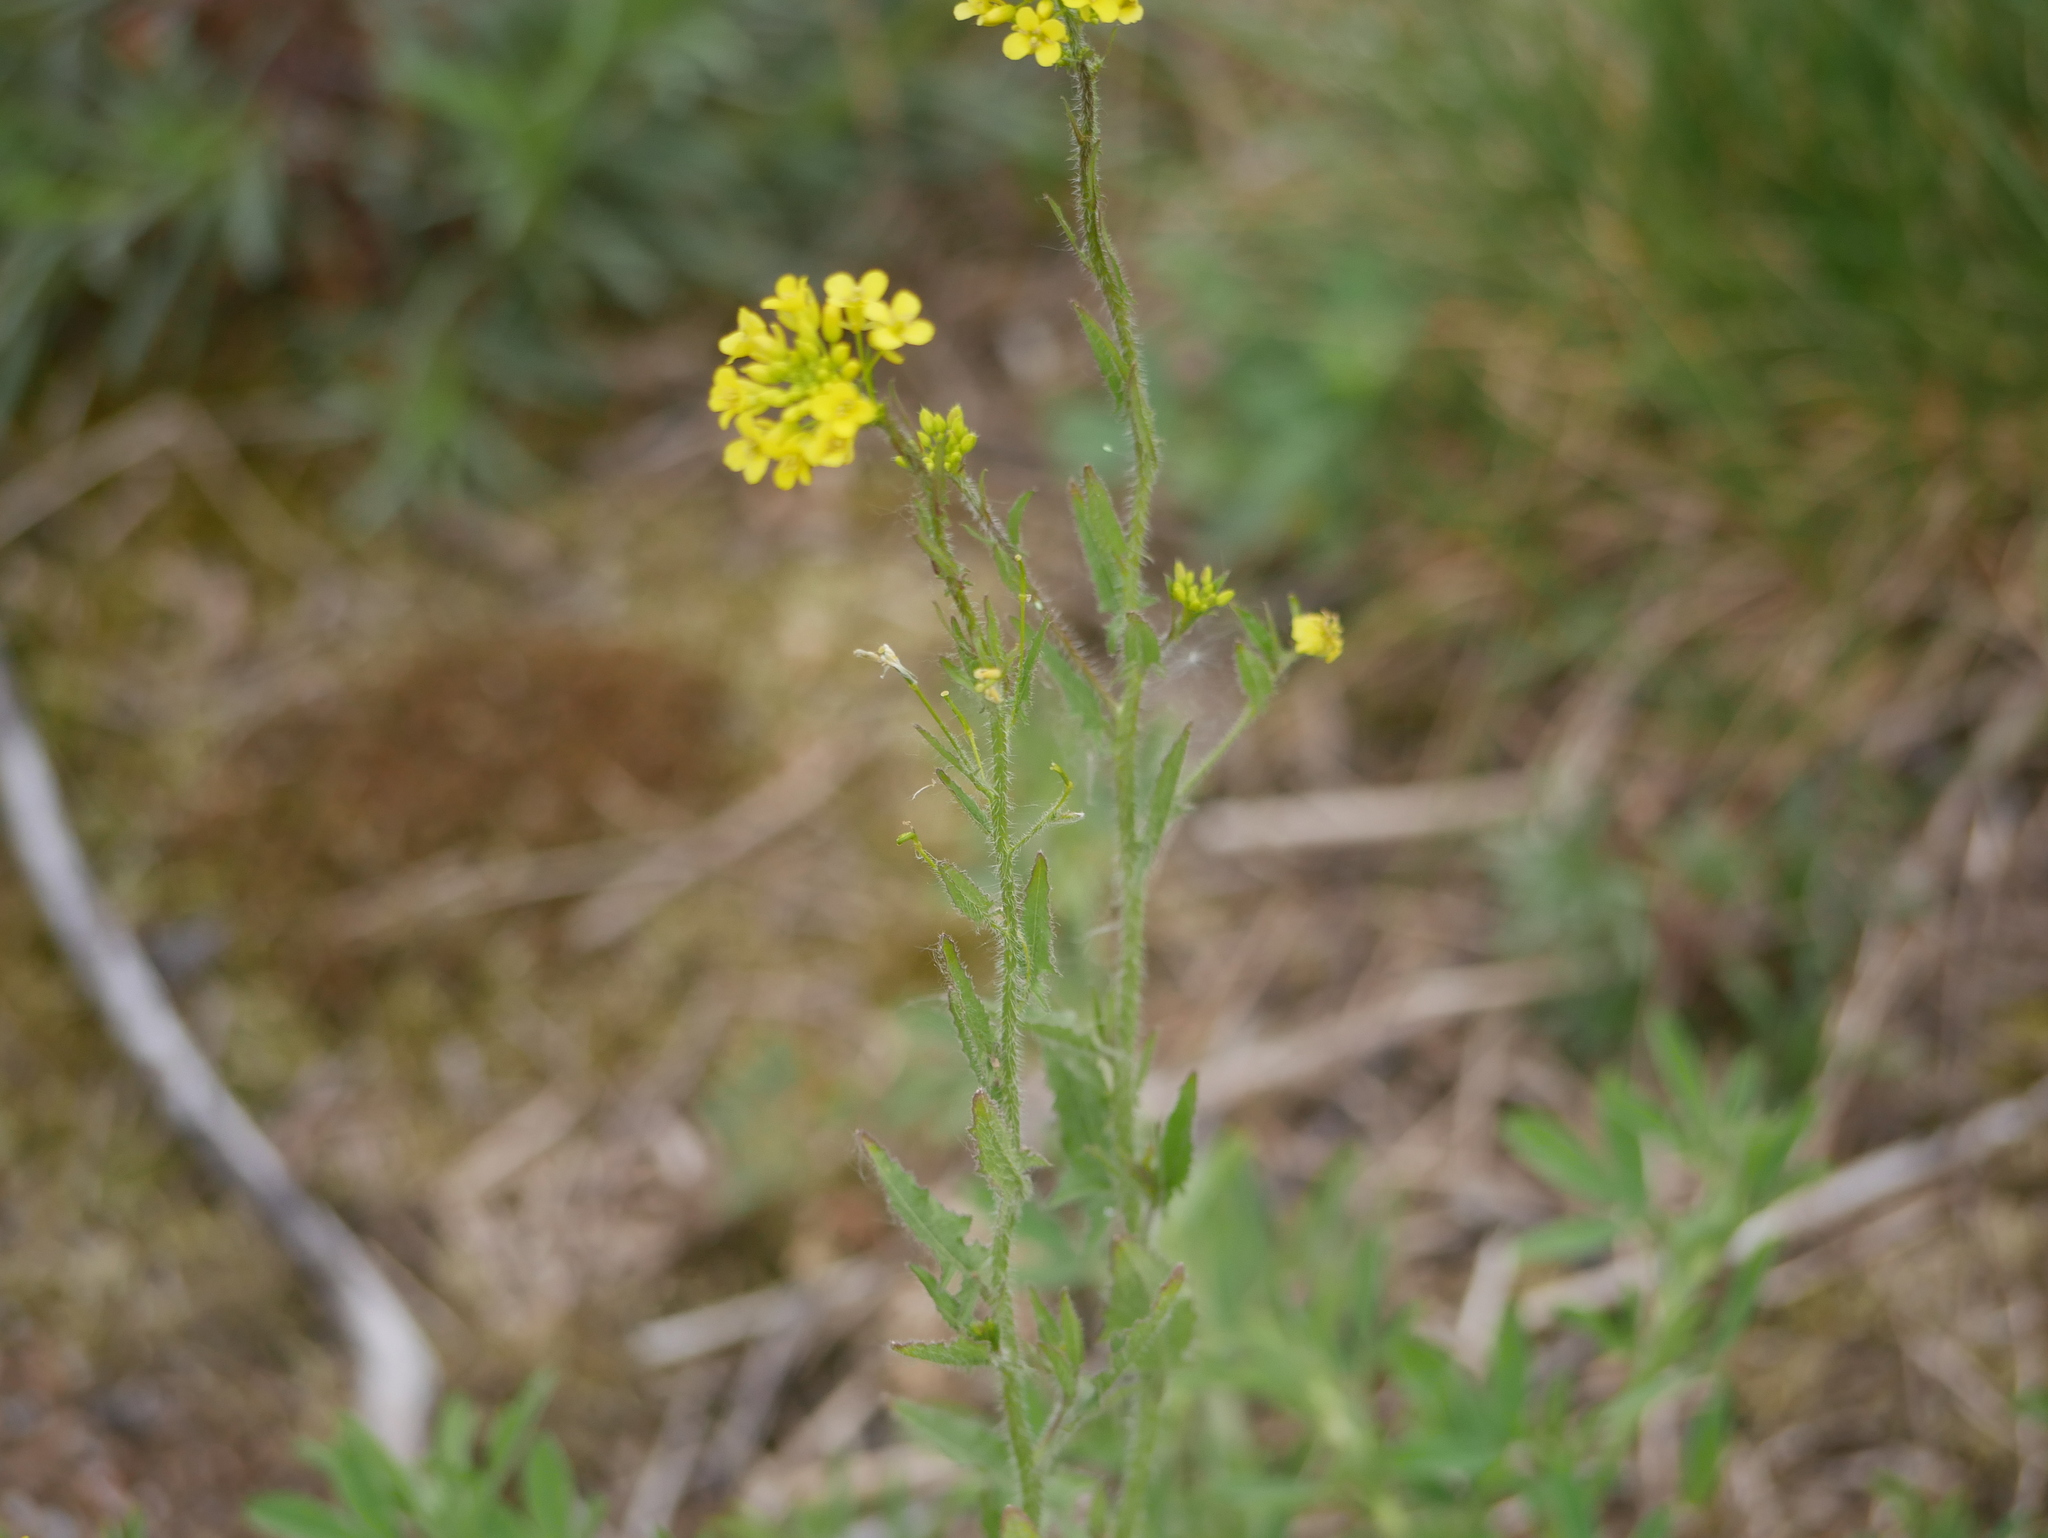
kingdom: Plantae
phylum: Tracheophyta
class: Magnoliopsida
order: Brassicales
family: Brassicaceae
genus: Sisymbrium
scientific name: Sisymbrium loeselii
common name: False london-rocket
